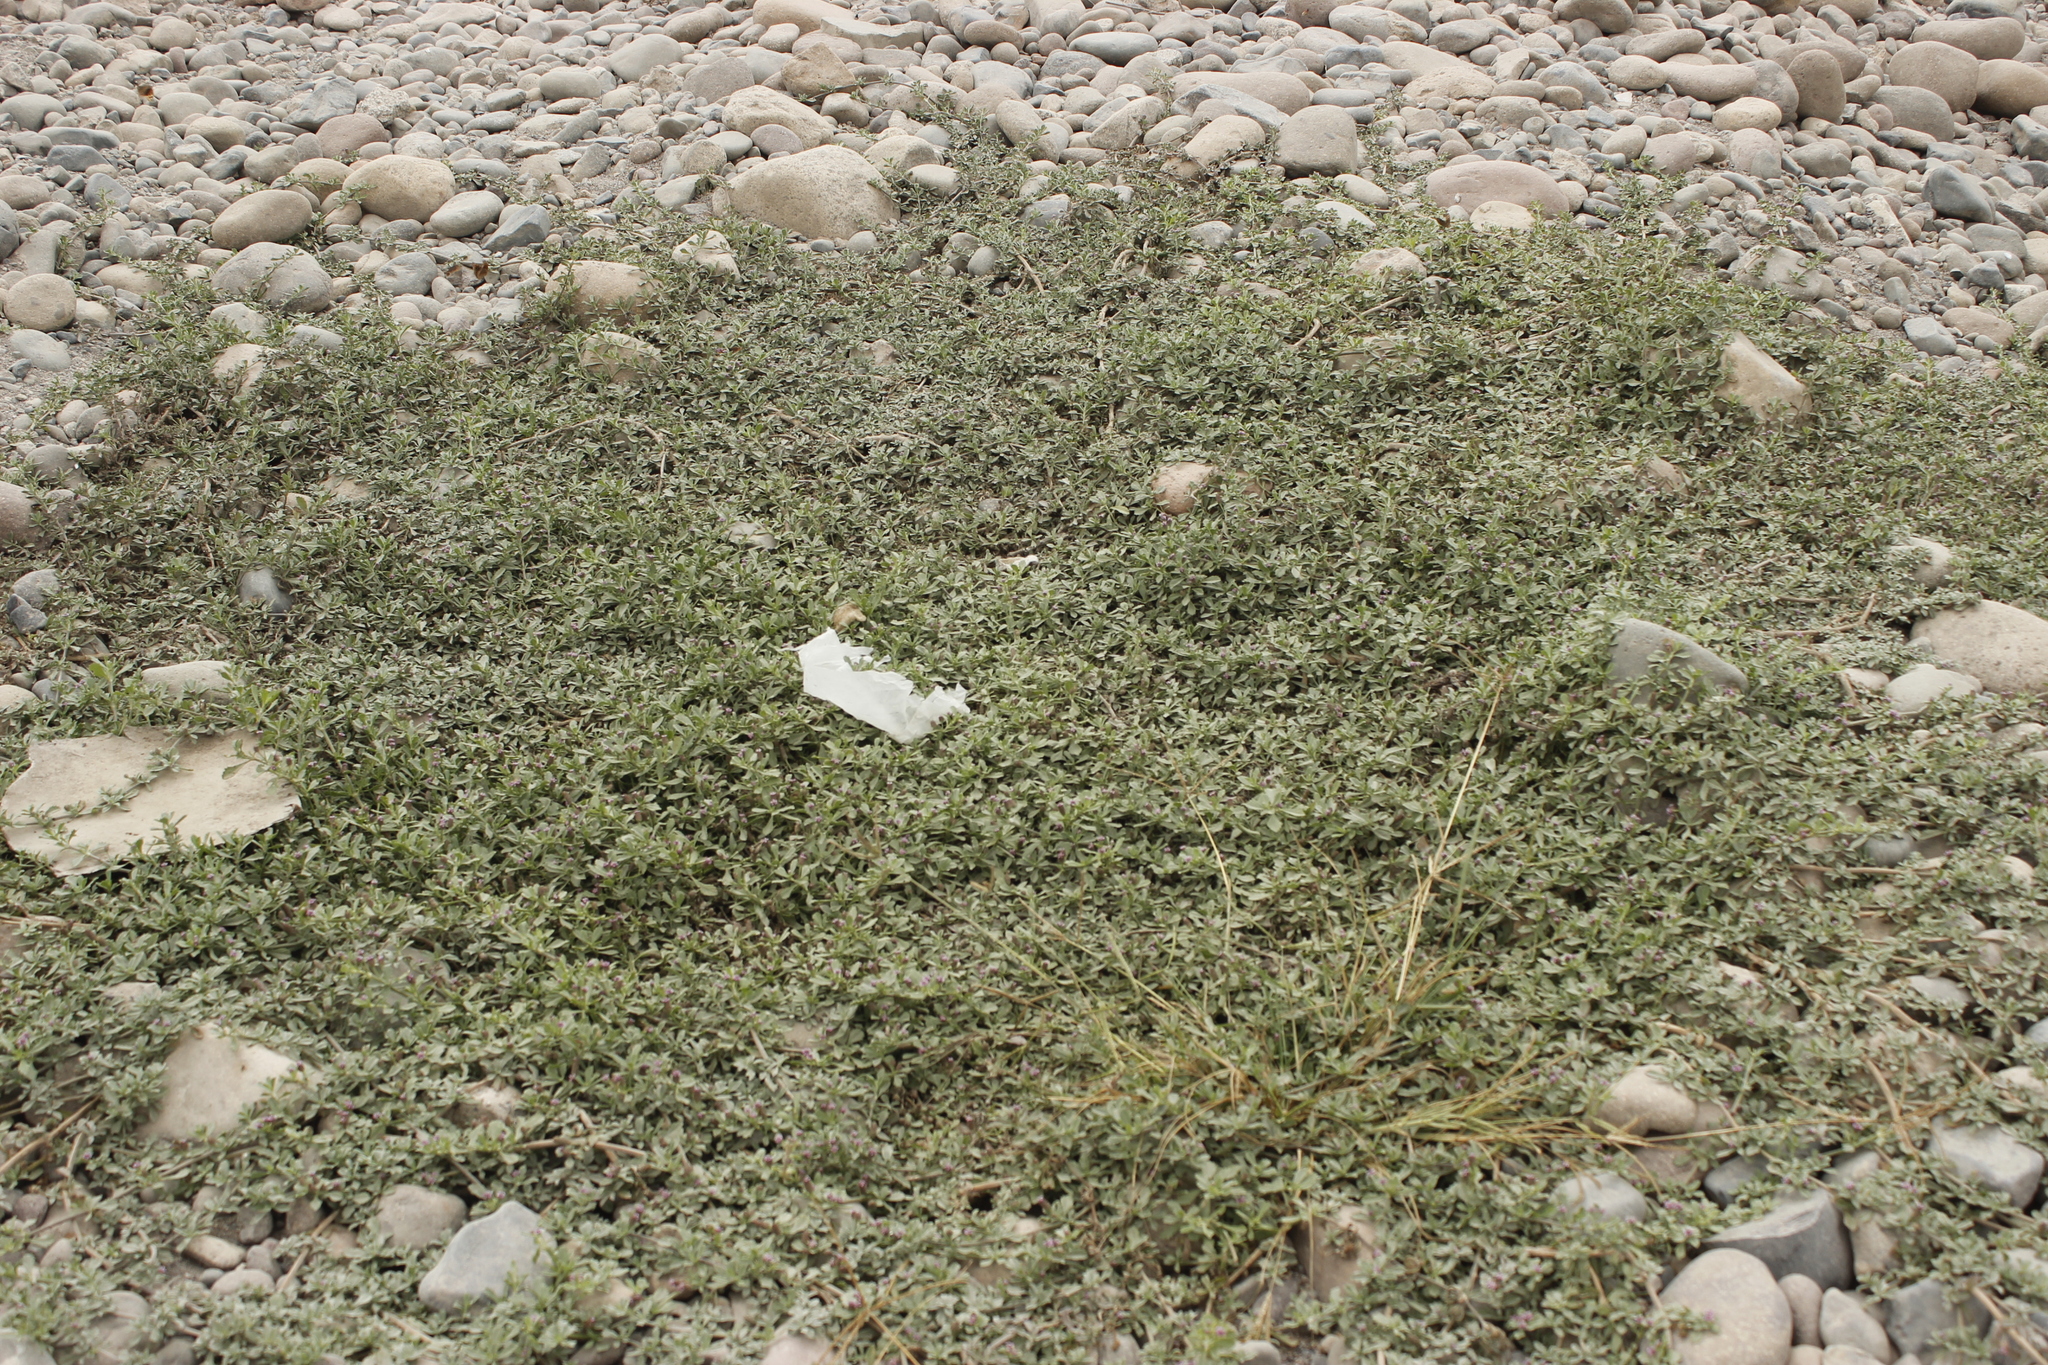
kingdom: Plantae
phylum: Tracheophyta
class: Magnoliopsida
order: Lamiales
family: Verbenaceae
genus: Phyla
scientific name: Phyla nodiflora
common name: Frogfruit
